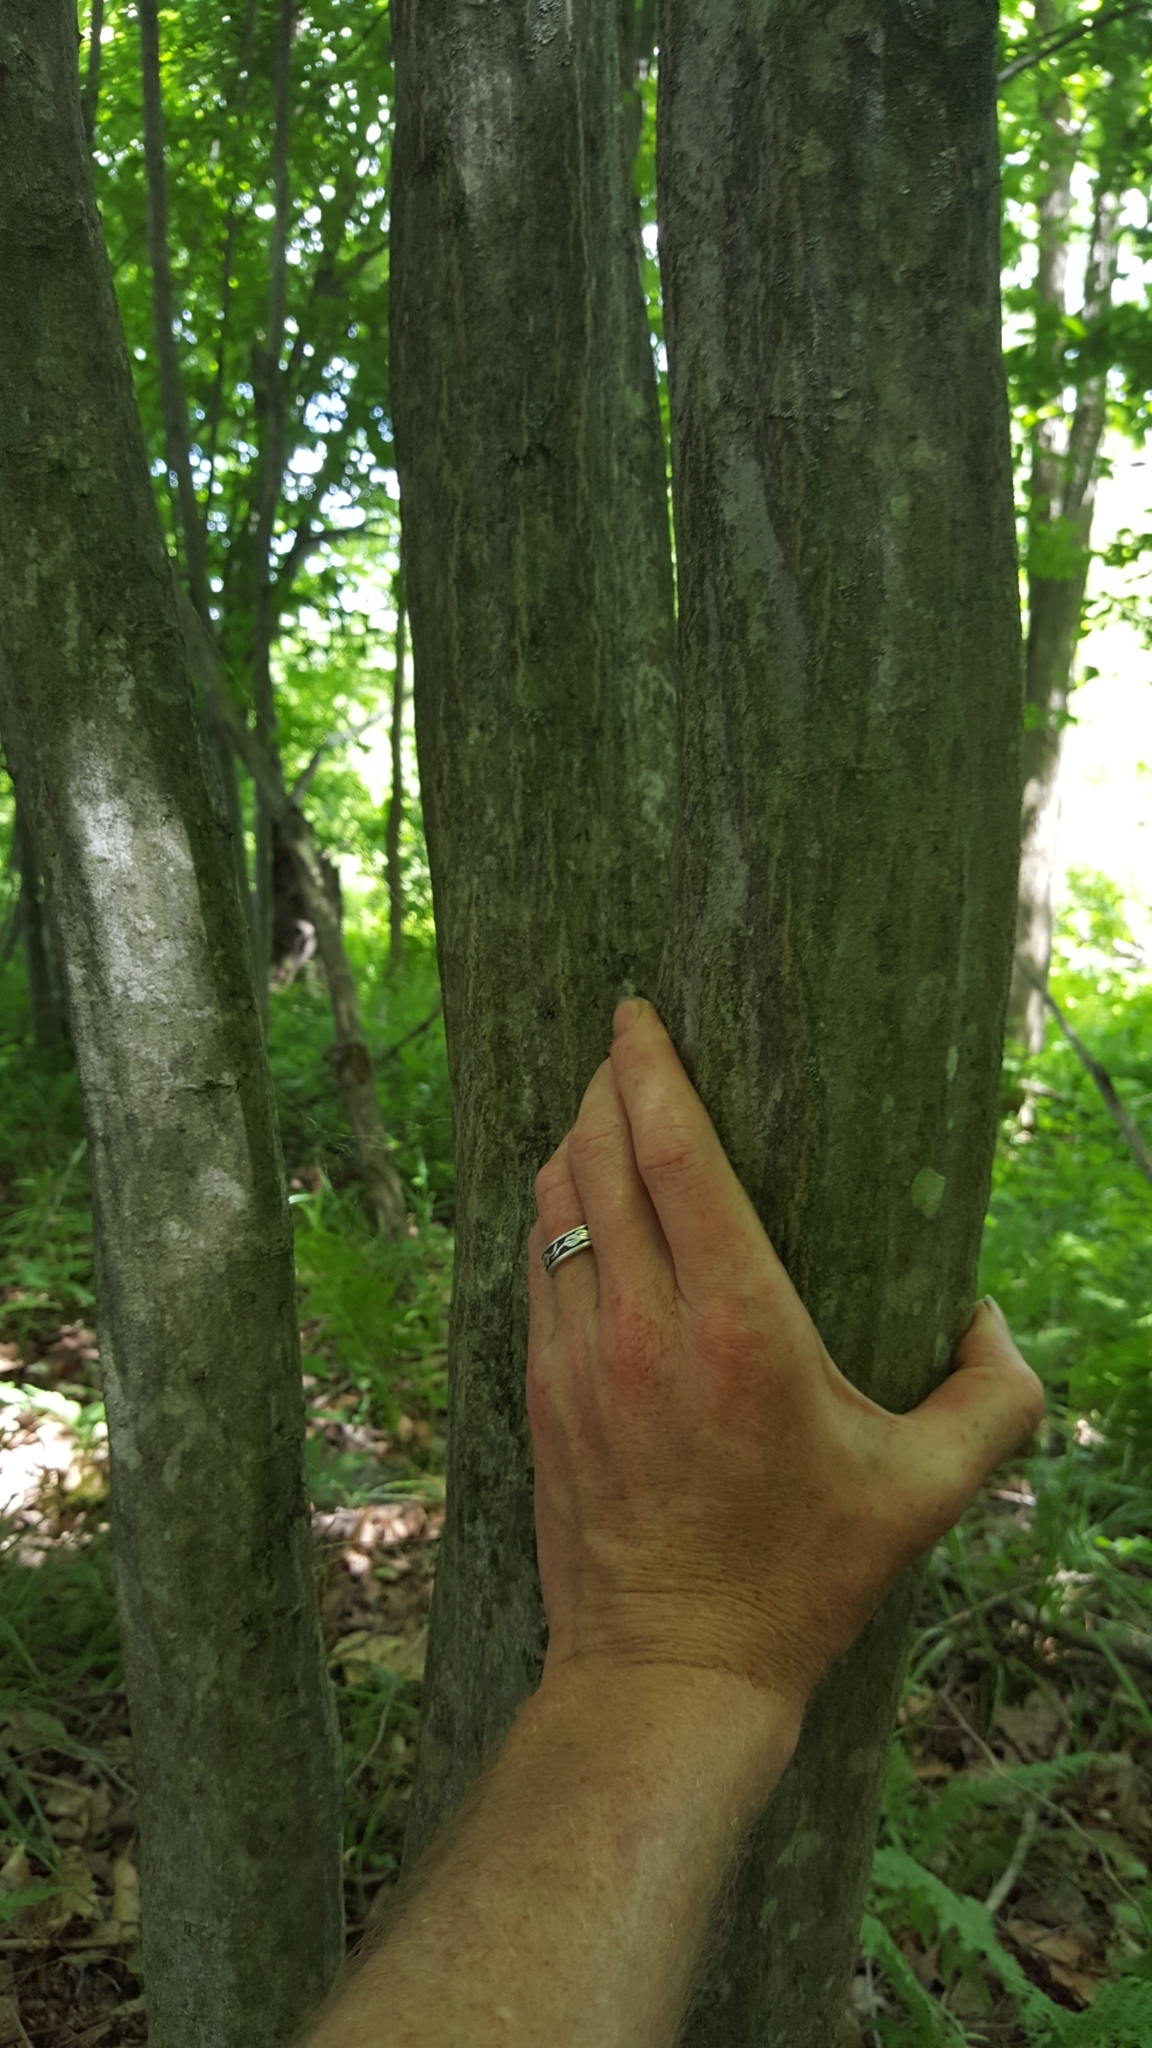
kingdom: Plantae
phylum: Tracheophyta
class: Magnoliopsida
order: Fagales
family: Betulaceae
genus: Carpinus
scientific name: Carpinus caroliniana
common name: American hornbeam
